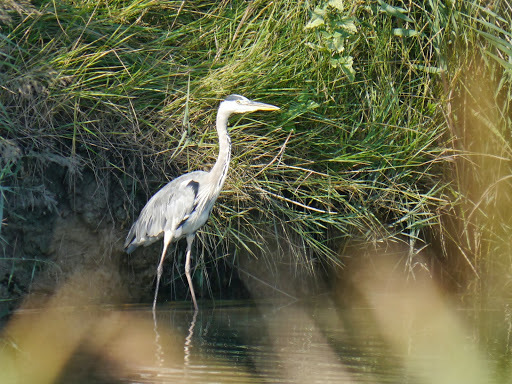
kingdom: Animalia
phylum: Chordata
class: Aves
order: Pelecaniformes
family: Ardeidae
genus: Ardea
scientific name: Ardea cinerea
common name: Grey heron
